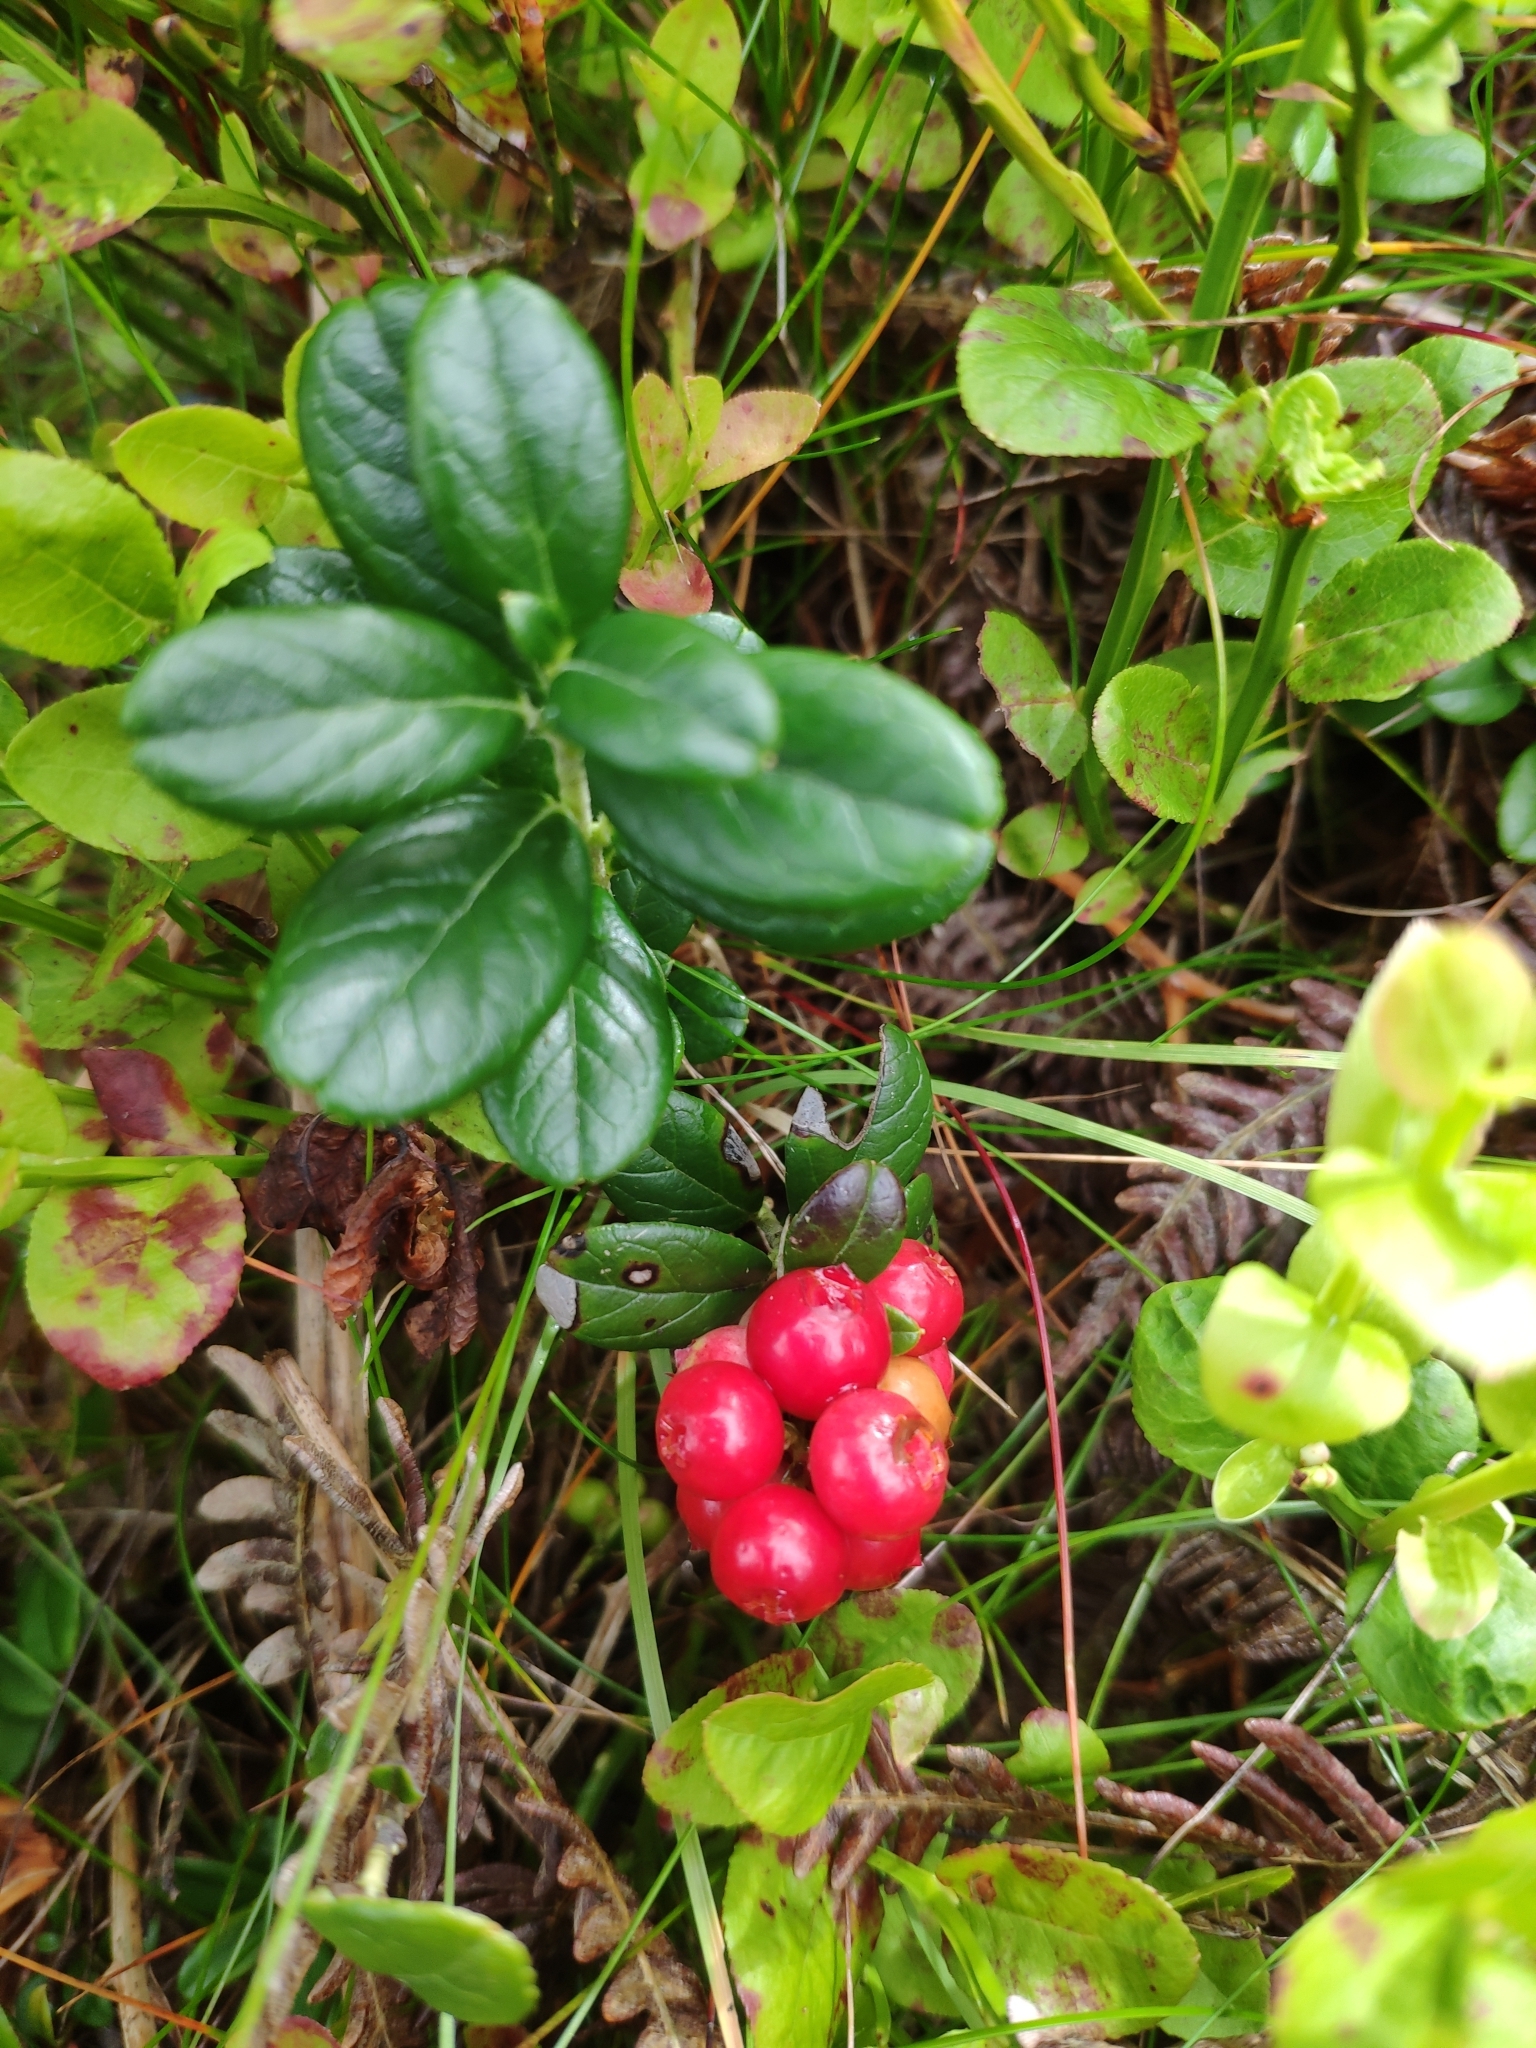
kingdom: Plantae
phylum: Tracheophyta
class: Magnoliopsida
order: Ericales
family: Ericaceae
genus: Vaccinium
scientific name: Vaccinium vitis-idaea
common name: Cowberry
